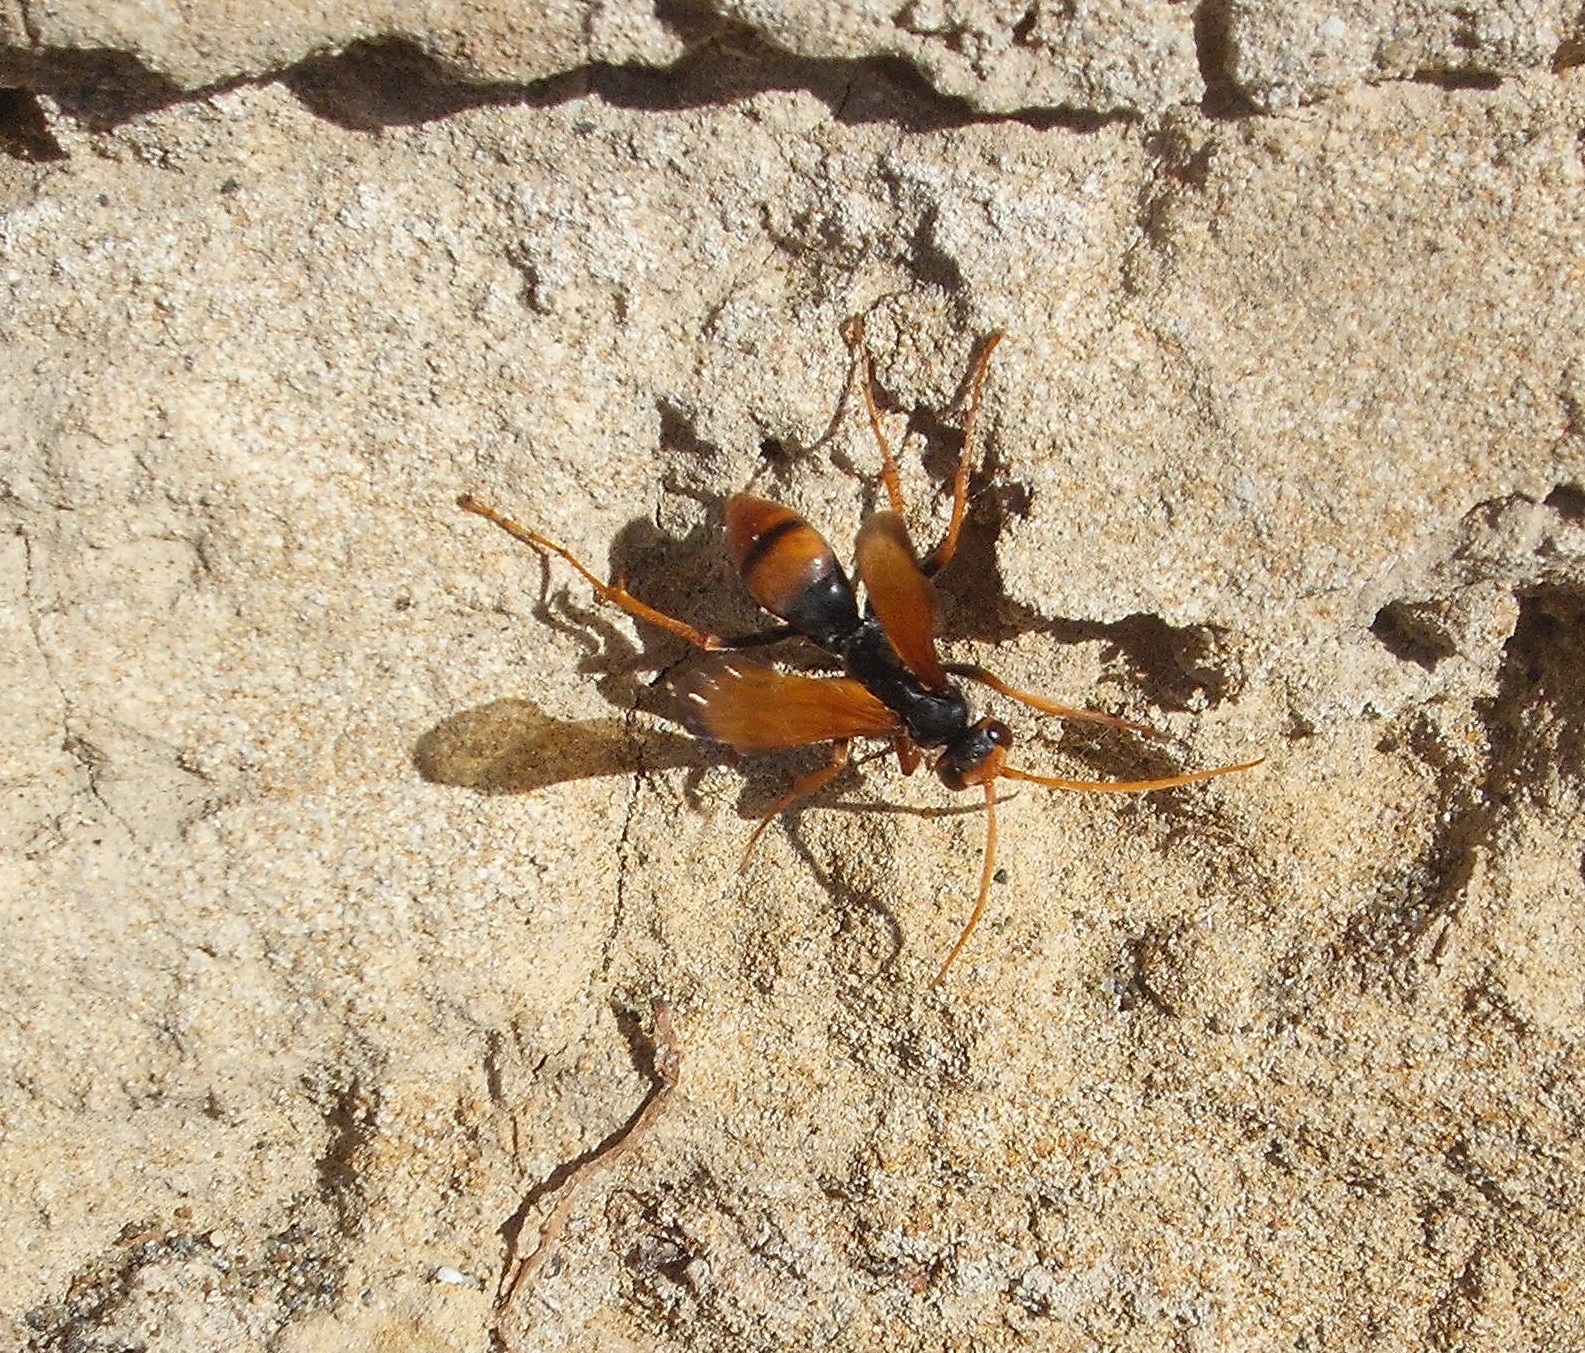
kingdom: Animalia
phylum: Arthropoda
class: Insecta
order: Hymenoptera
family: Pompilidae
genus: Cryptocheilus
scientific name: Cryptocheilus australis
